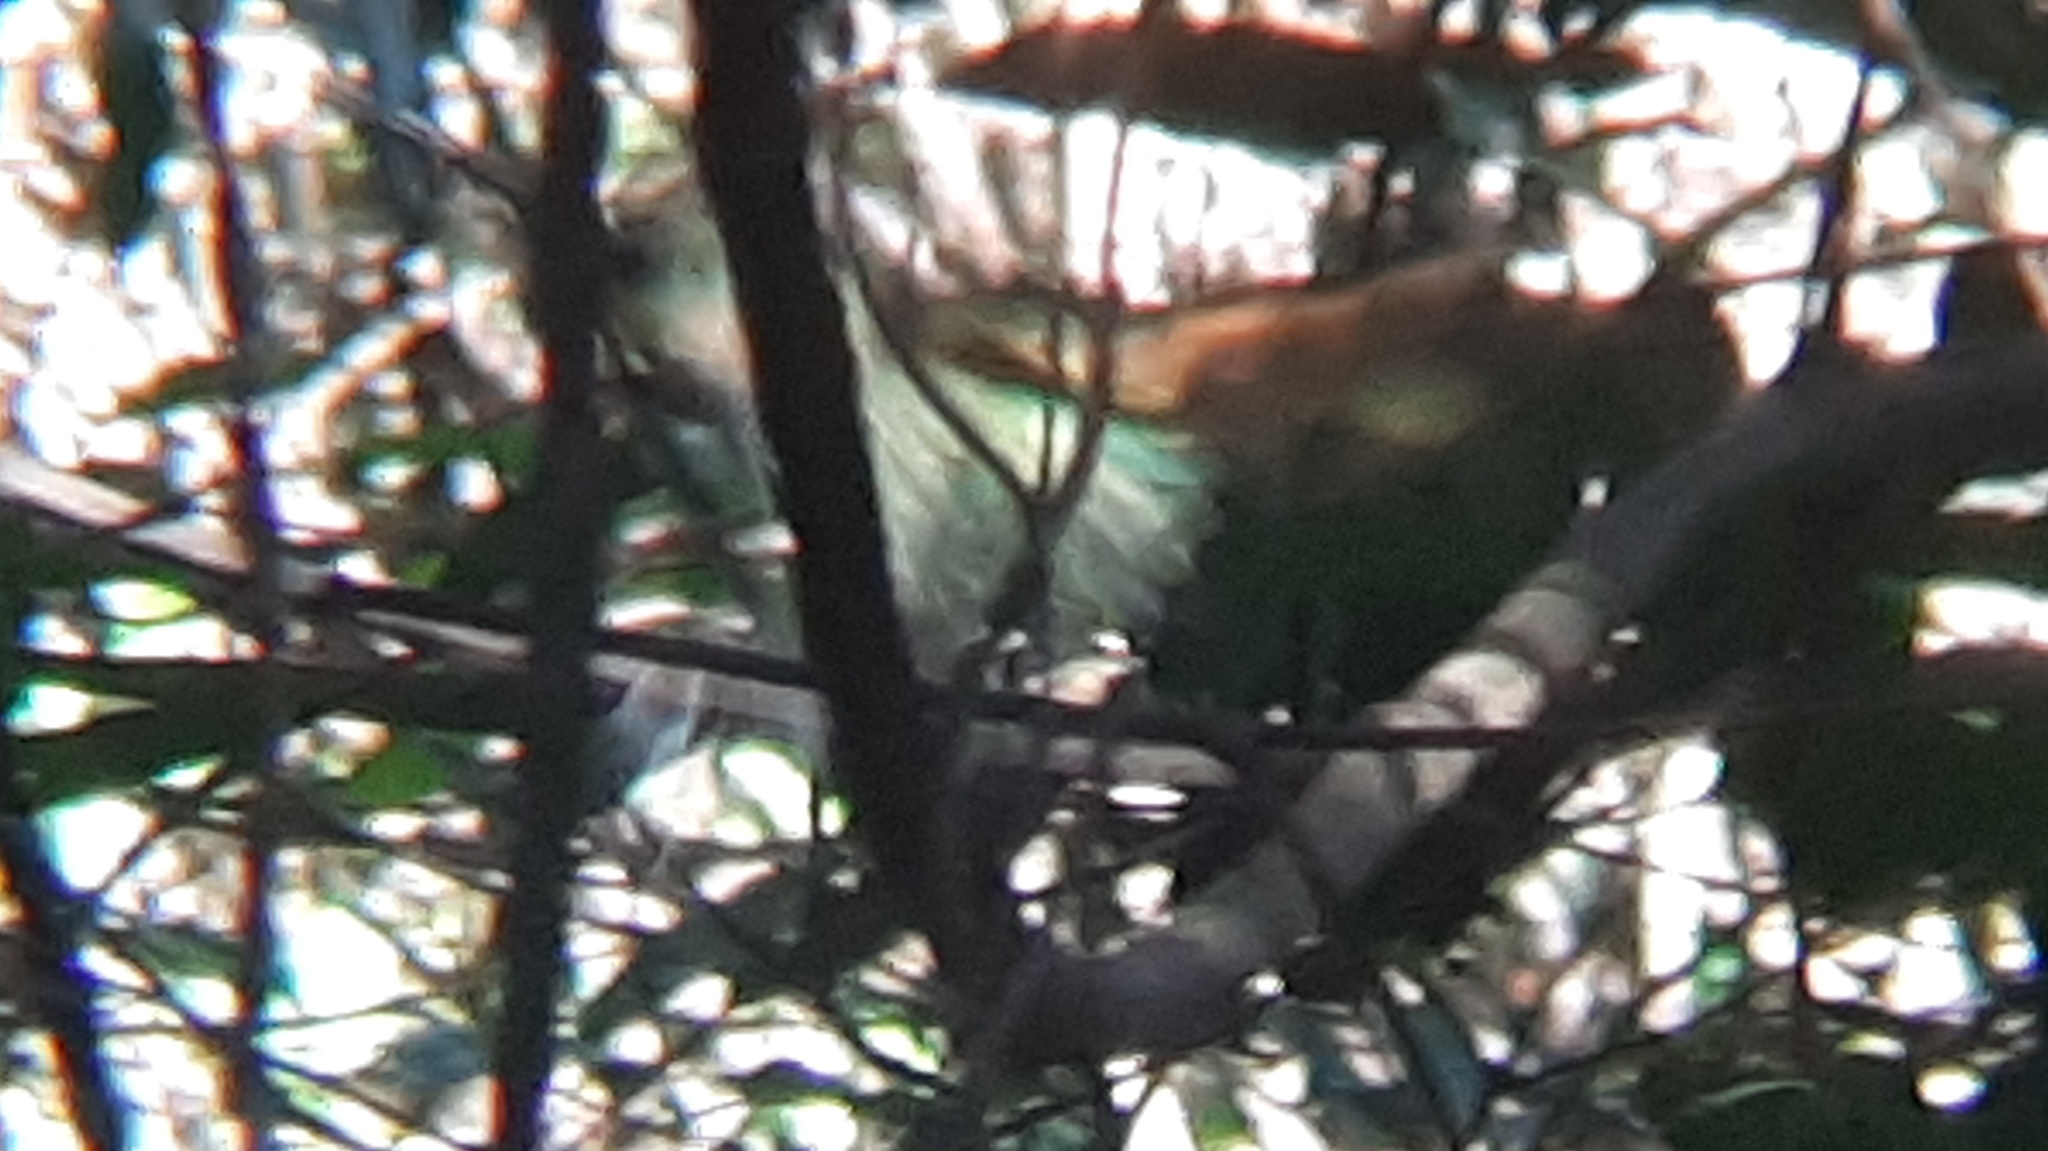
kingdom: Animalia
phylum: Chordata
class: Aves
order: Piciformes
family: Galbulidae
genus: Galbula
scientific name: Galbula ruficauda
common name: Rufous-tailed jacamar
